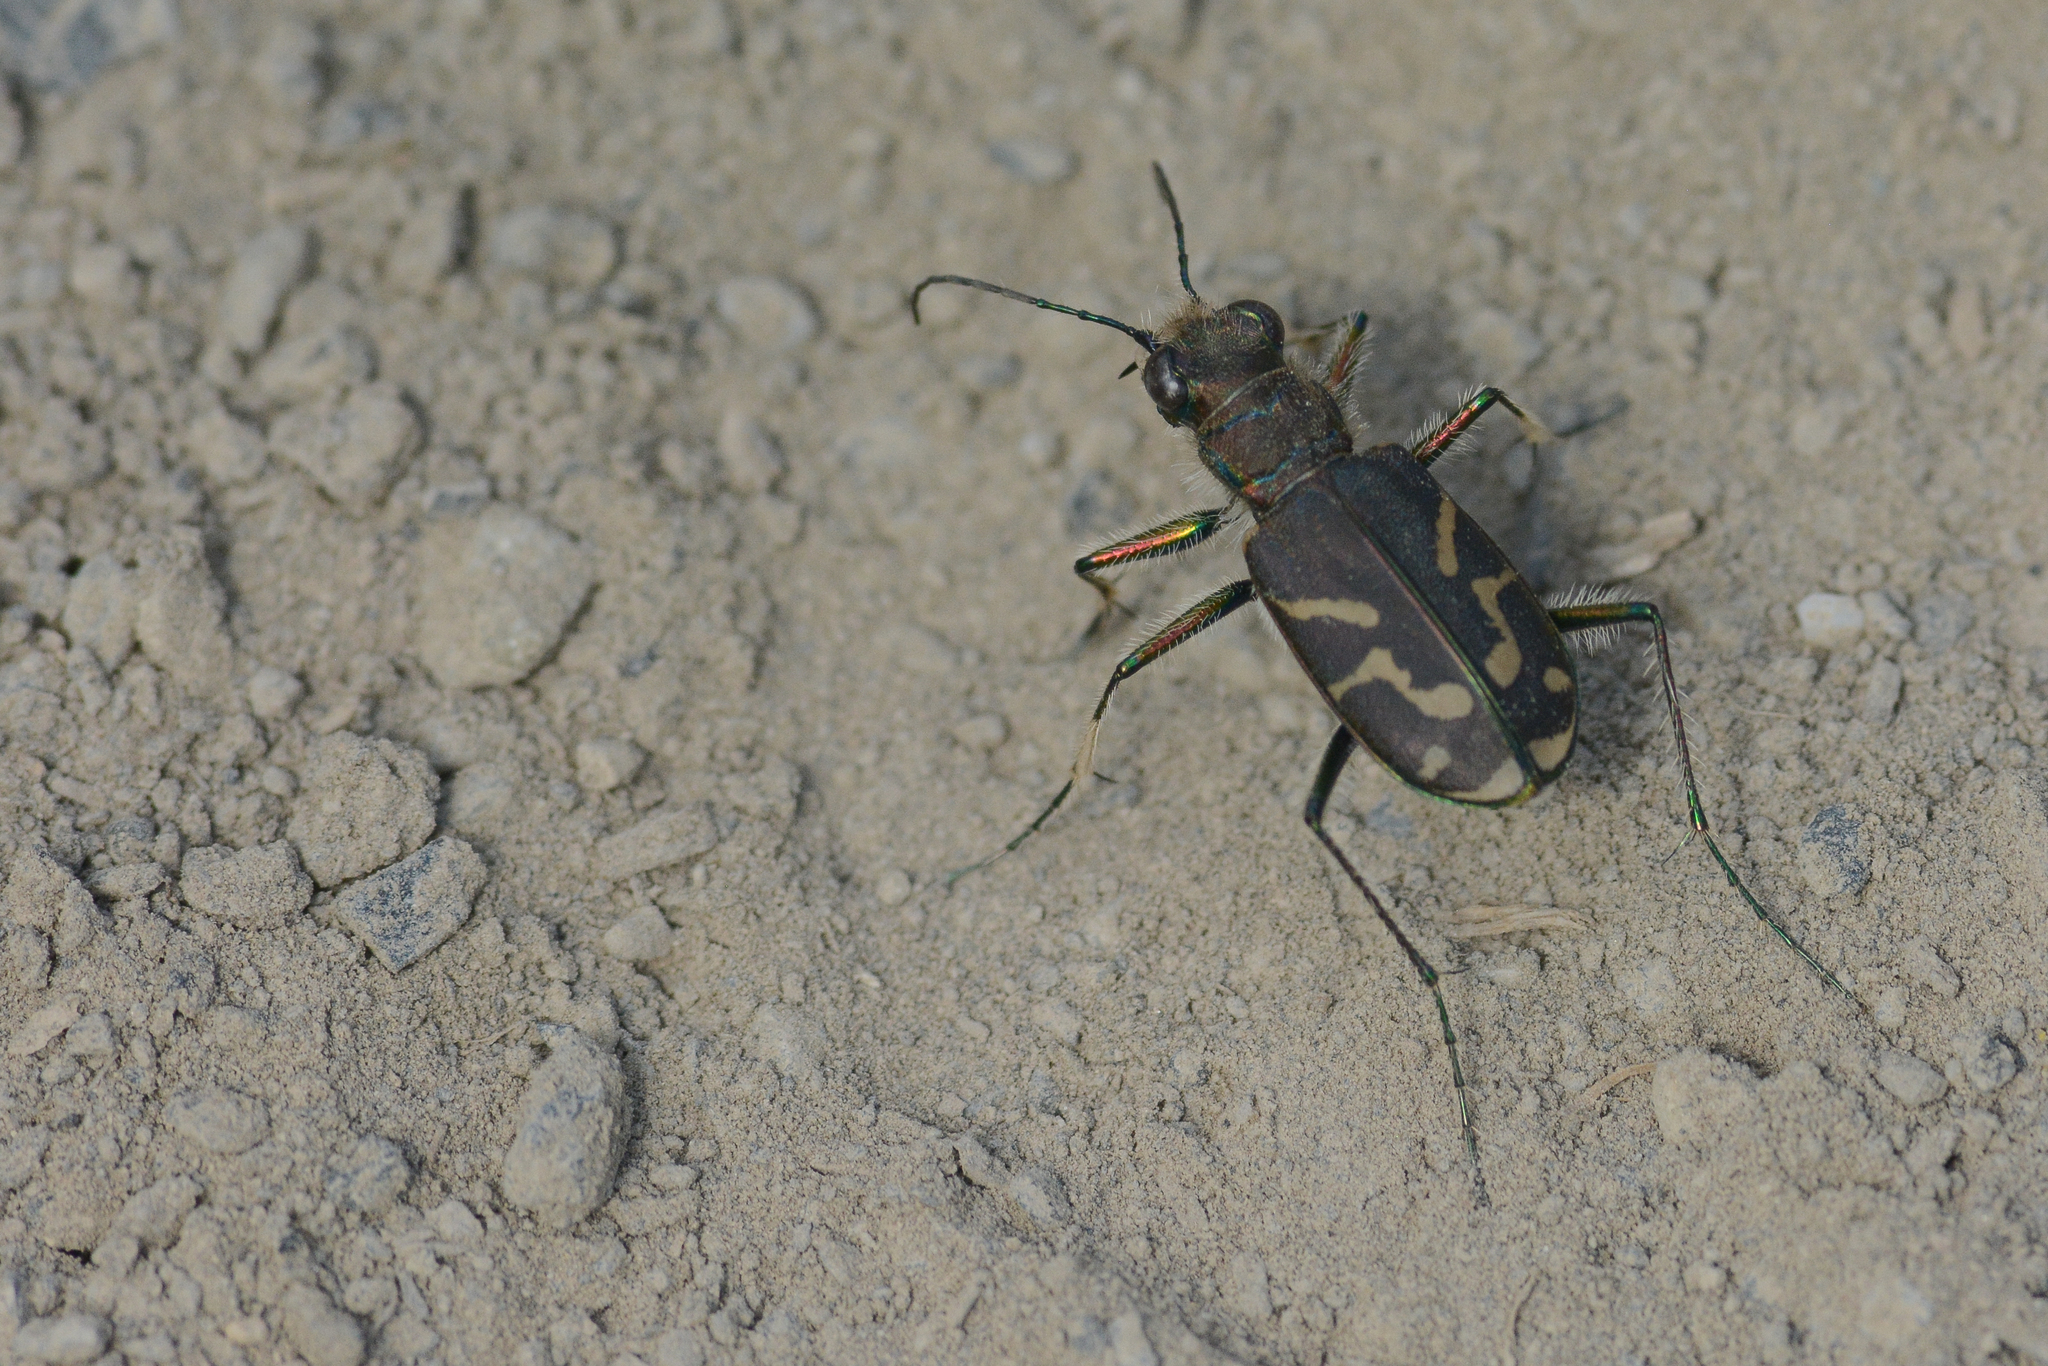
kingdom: Animalia
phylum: Arthropoda
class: Insecta
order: Coleoptera
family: Carabidae
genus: Cicindela
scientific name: Cicindela tranquebarica
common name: Oblique-lined tiger beetle
